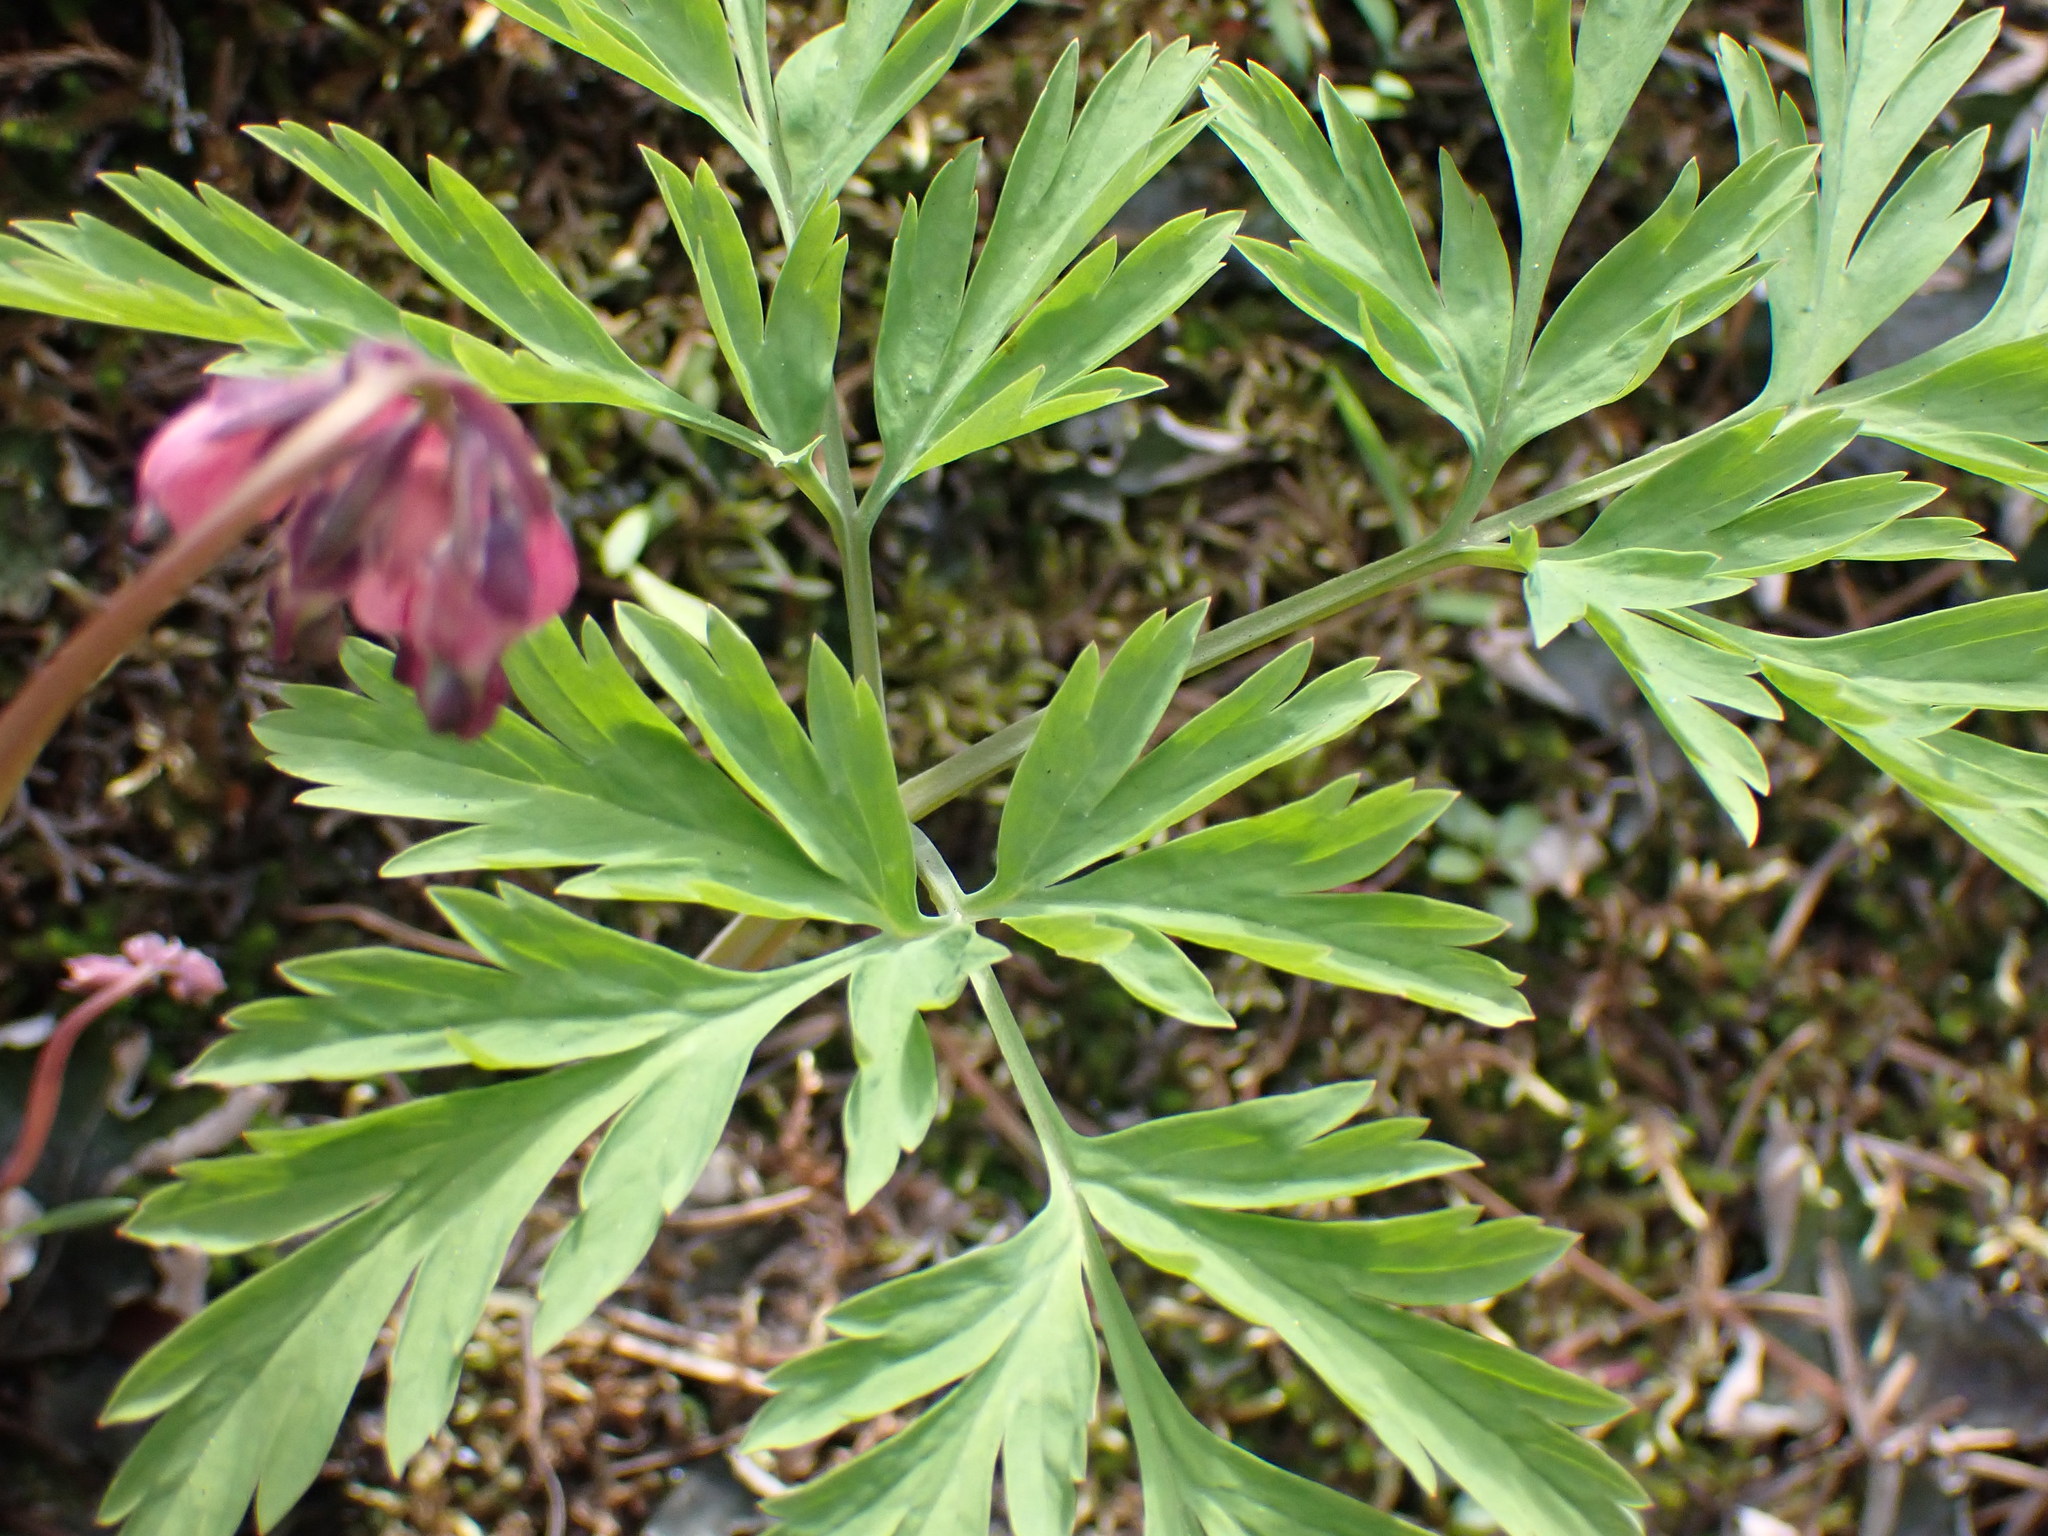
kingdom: Plantae
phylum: Tracheophyta
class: Magnoliopsida
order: Ranunculales
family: Papaveraceae
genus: Dicentra
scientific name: Dicentra formosa
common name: Bleeding-heart
